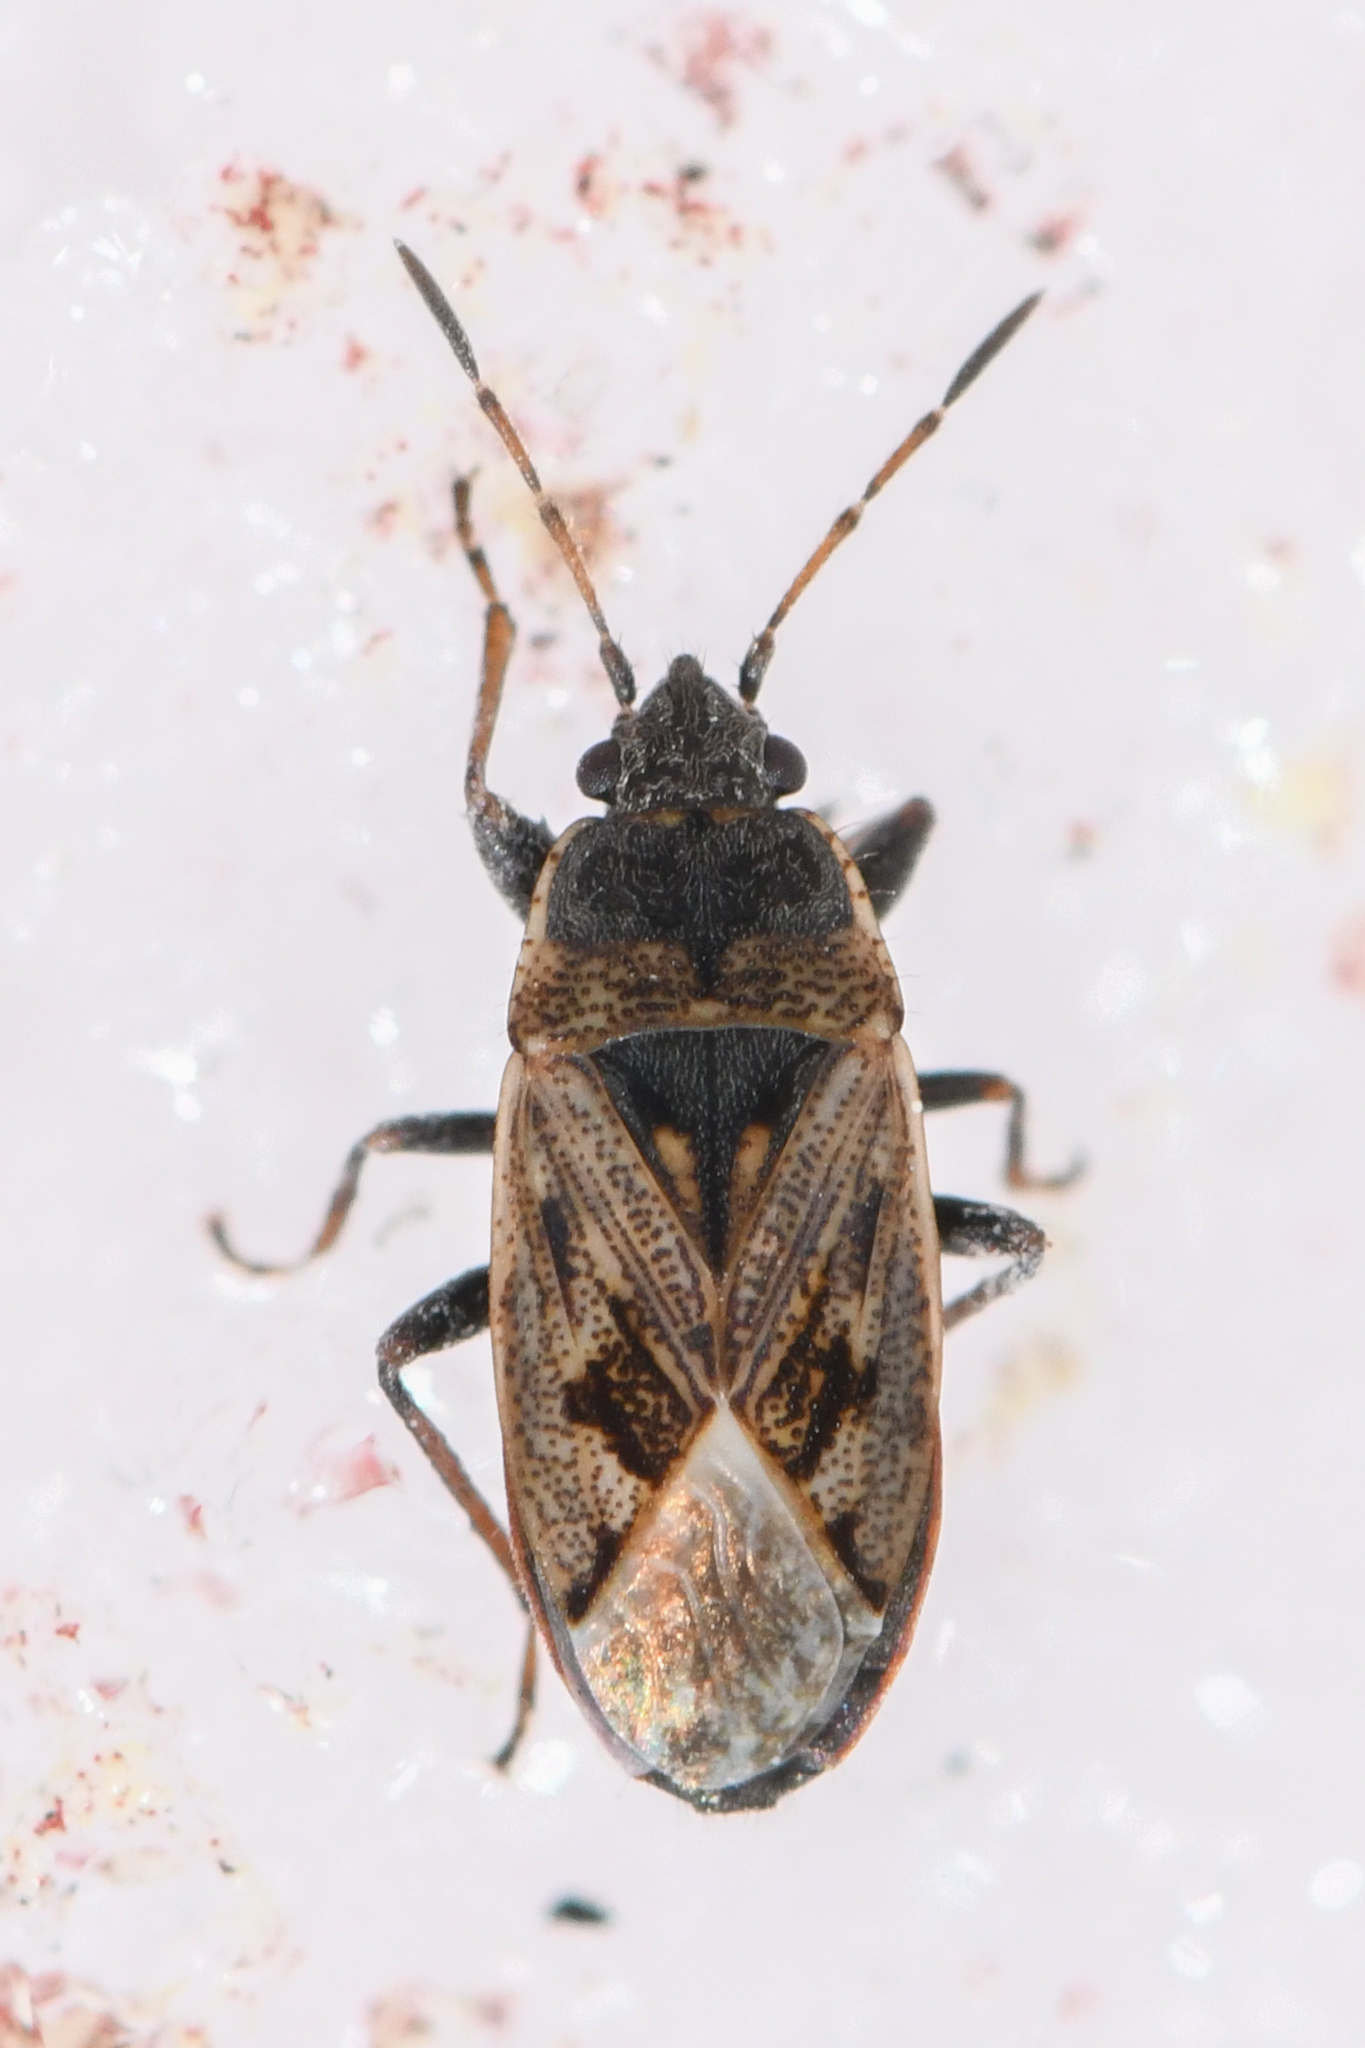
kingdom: Animalia
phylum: Arthropoda
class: Insecta
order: Hemiptera
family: Rhyparochromidae
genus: Sphragisticus
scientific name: Sphragisticus nebulosus
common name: Dirt-colored seed bug
